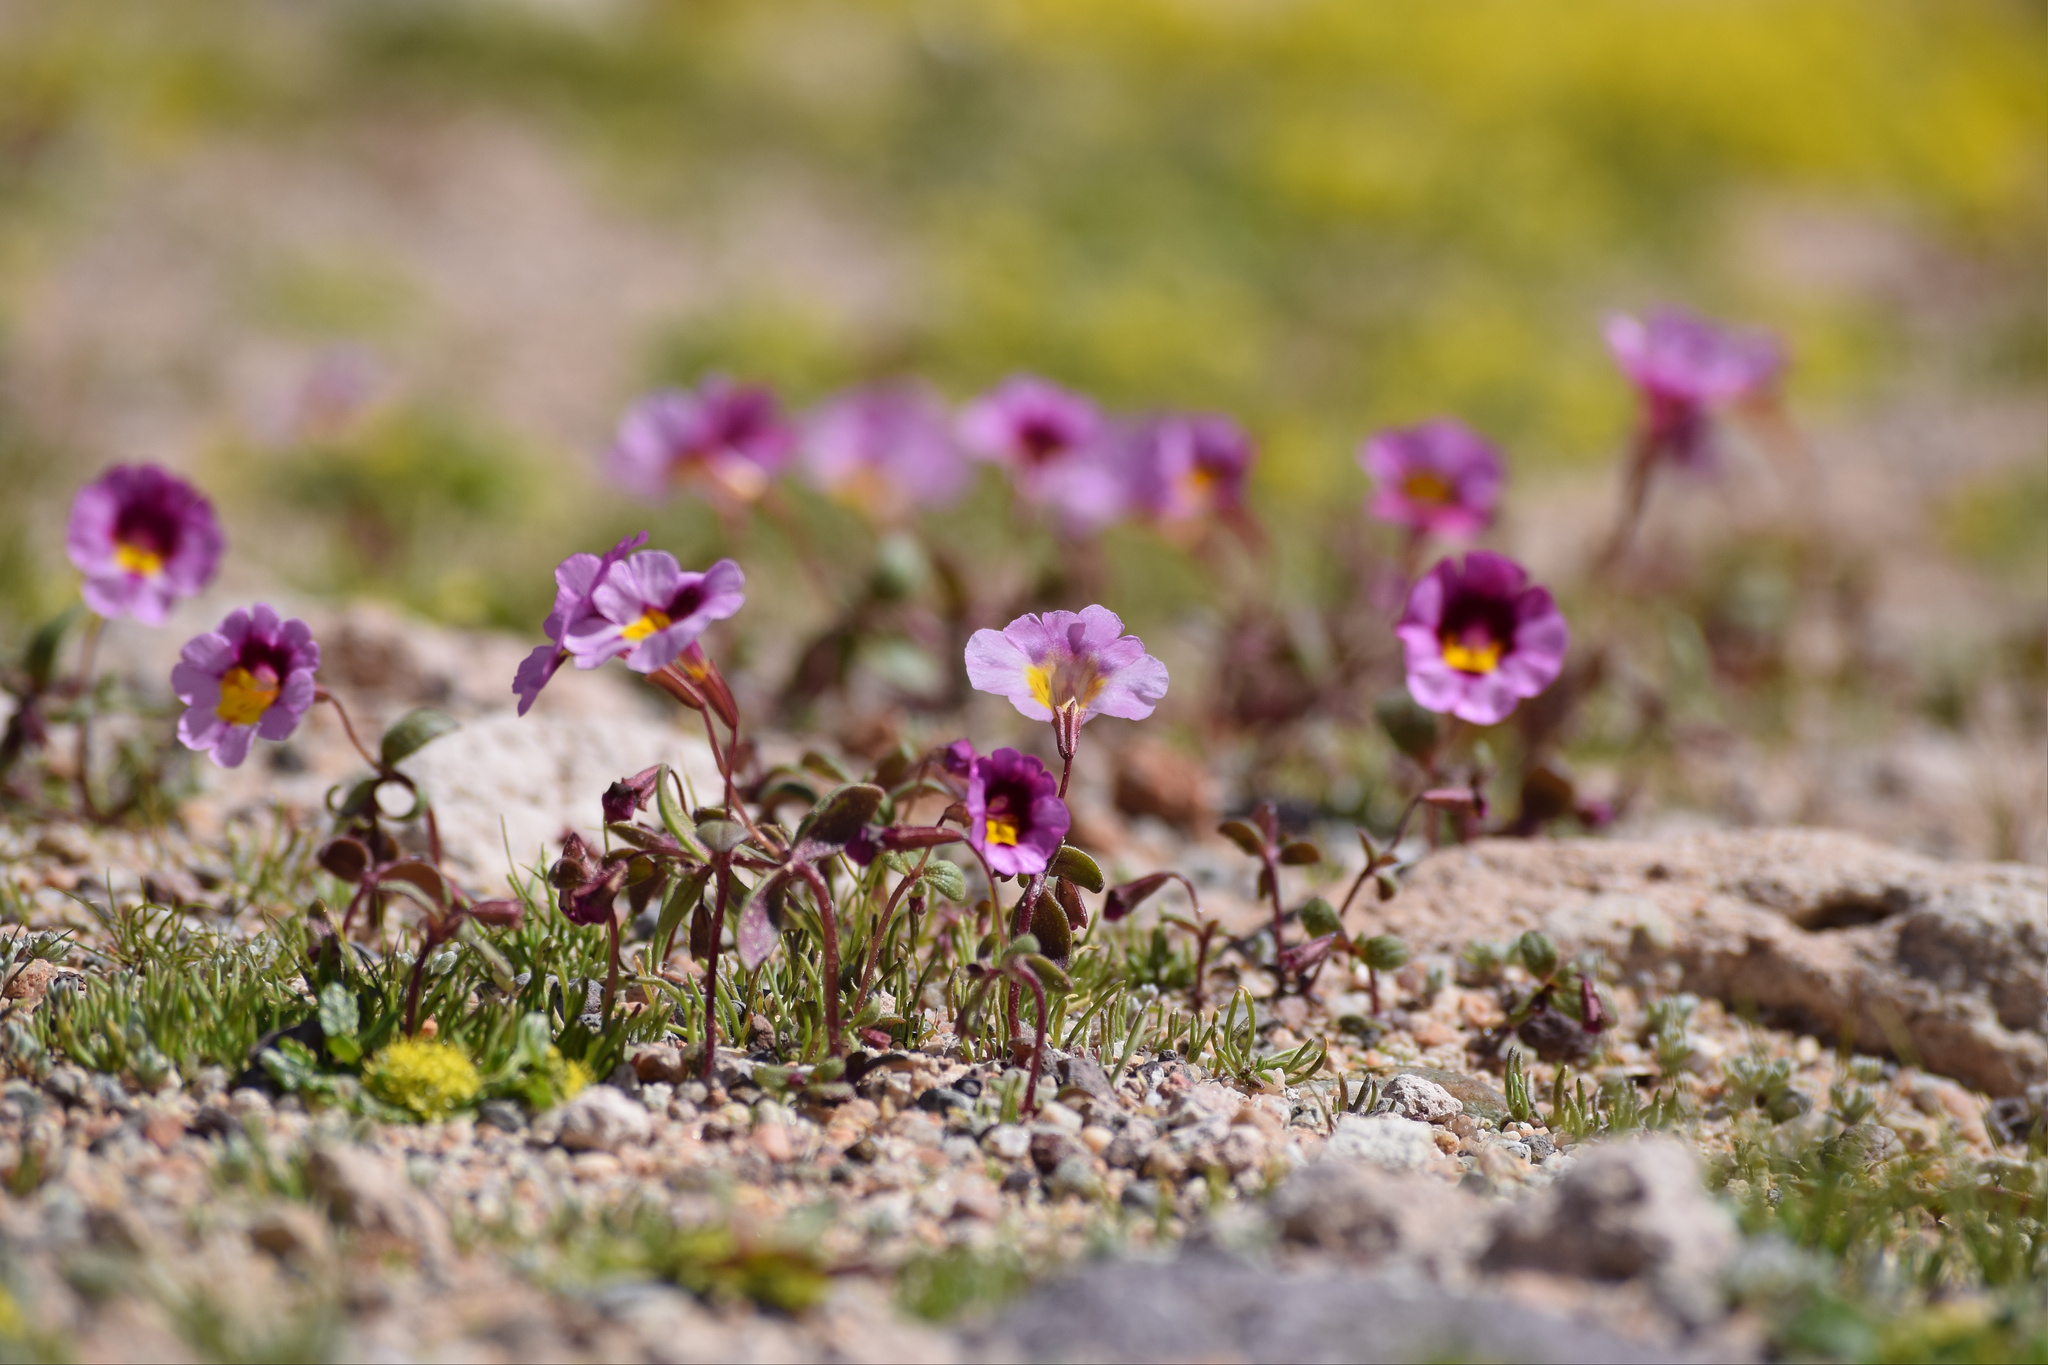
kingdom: Plantae
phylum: Tracheophyta
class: Magnoliopsida
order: Lamiales
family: Phrymaceae
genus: Erythranthe
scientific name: Erythranthe rhodopetra
